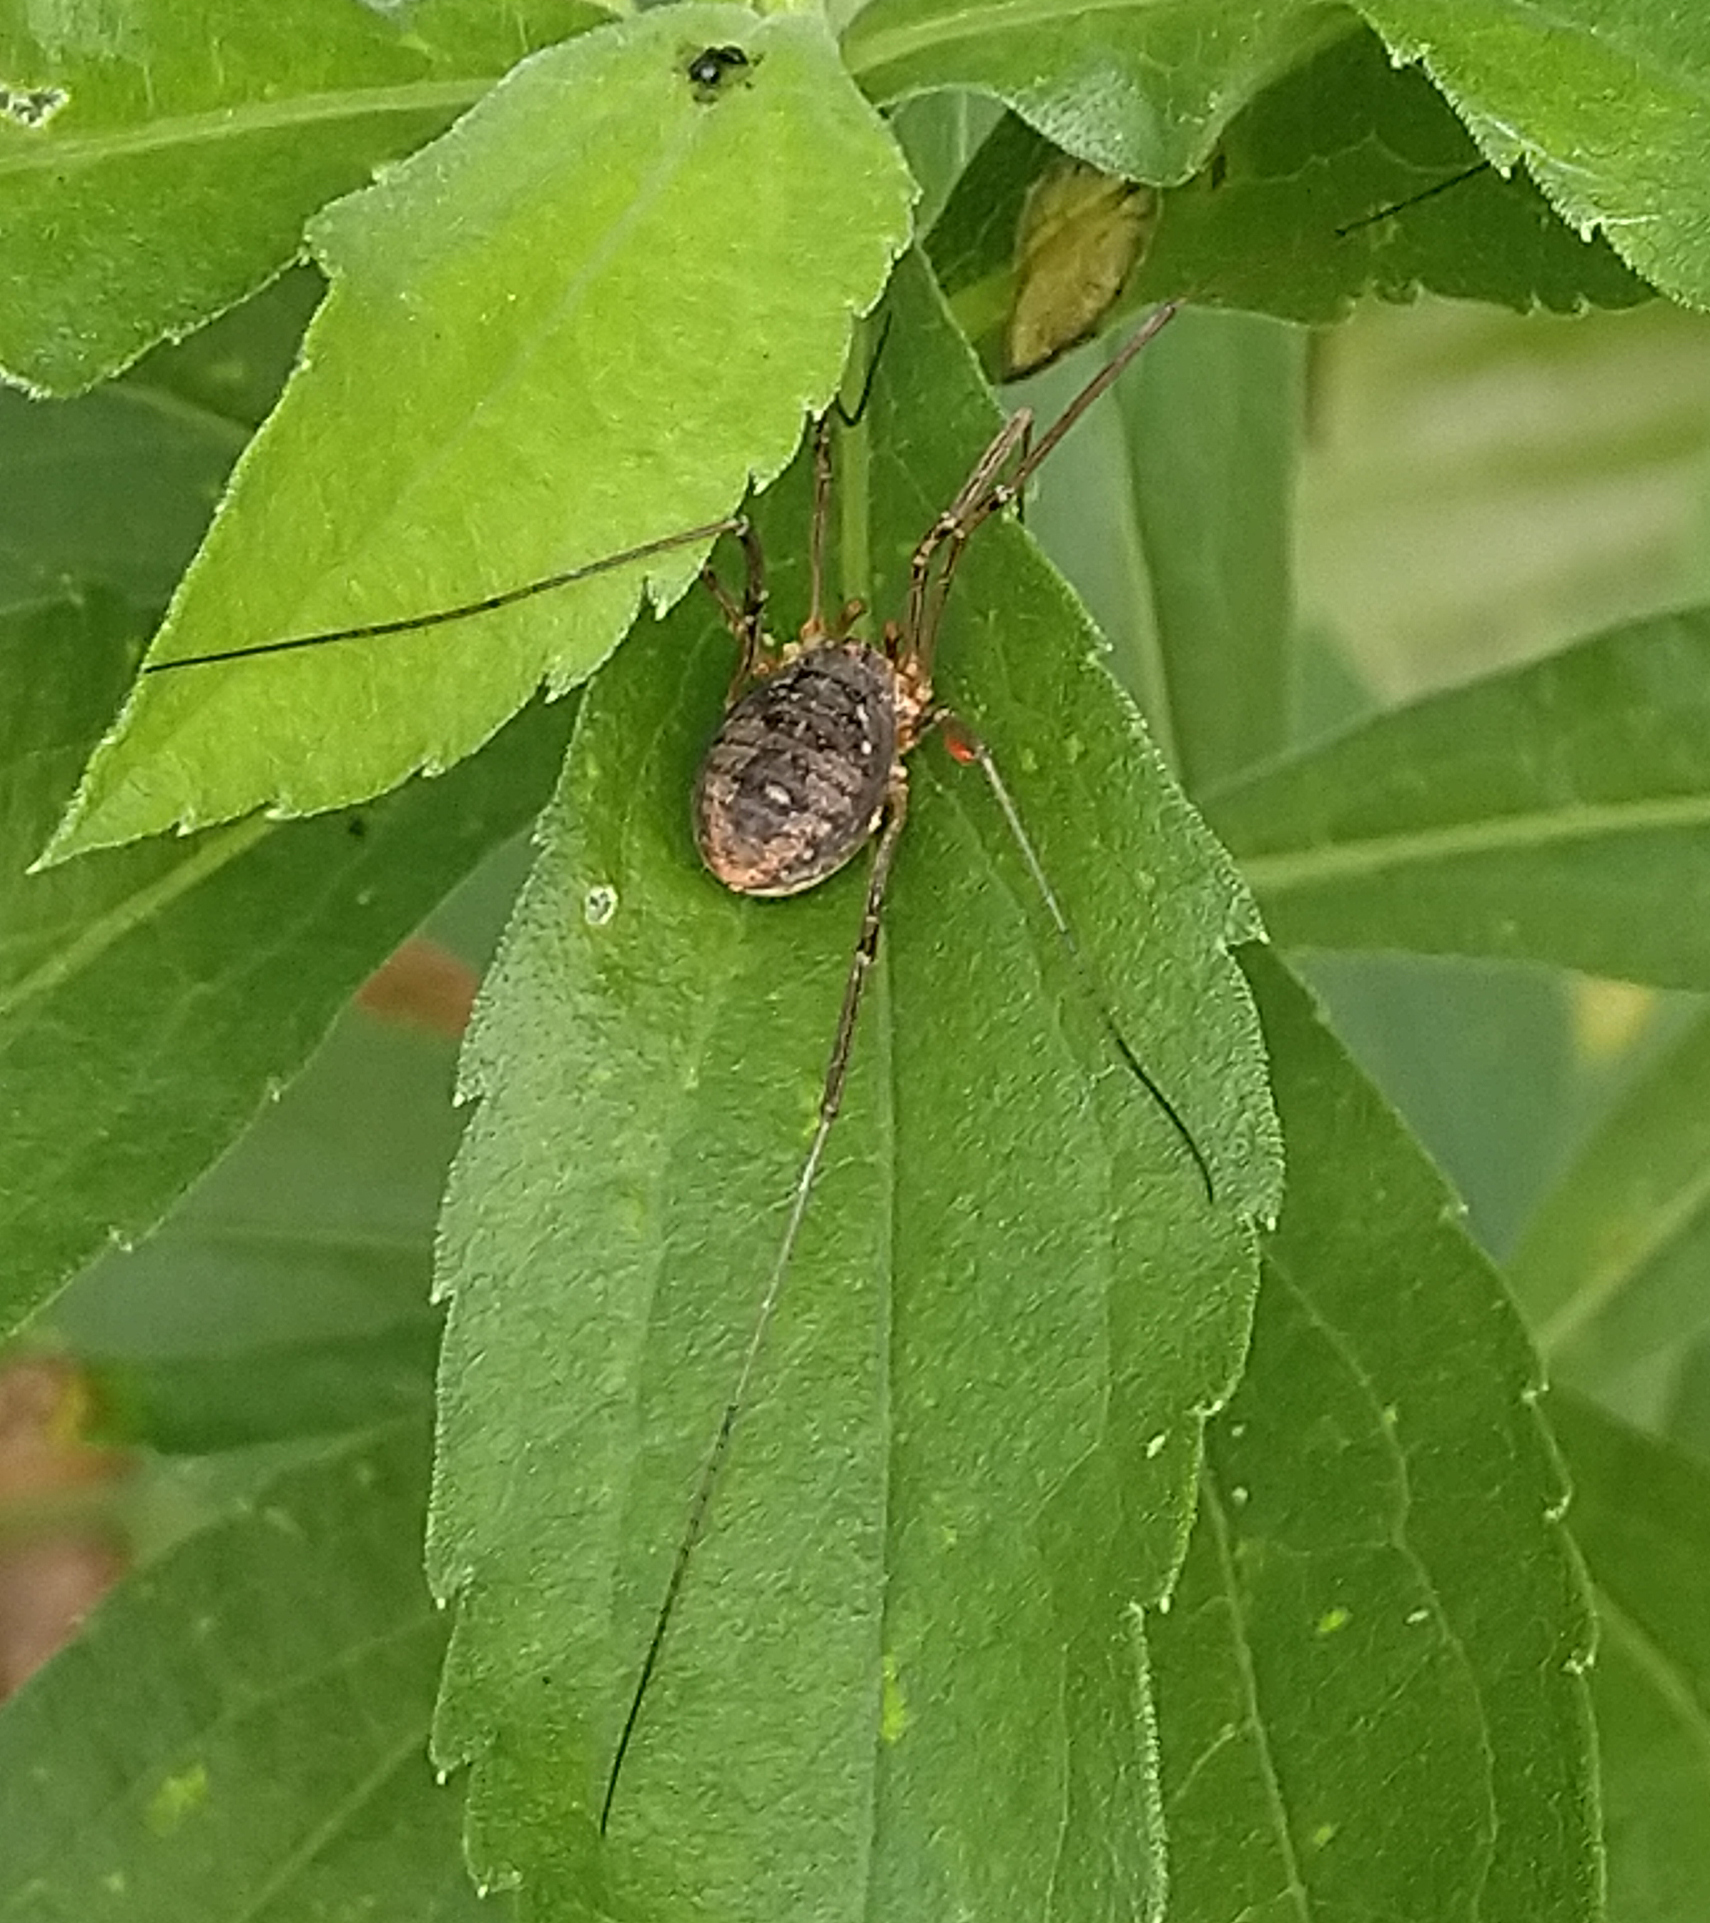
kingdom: Animalia
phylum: Arthropoda
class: Arachnida
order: Opiliones
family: Phalangiidae
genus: Phalangium
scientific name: Phalangium opilio
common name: Daddy longleg
